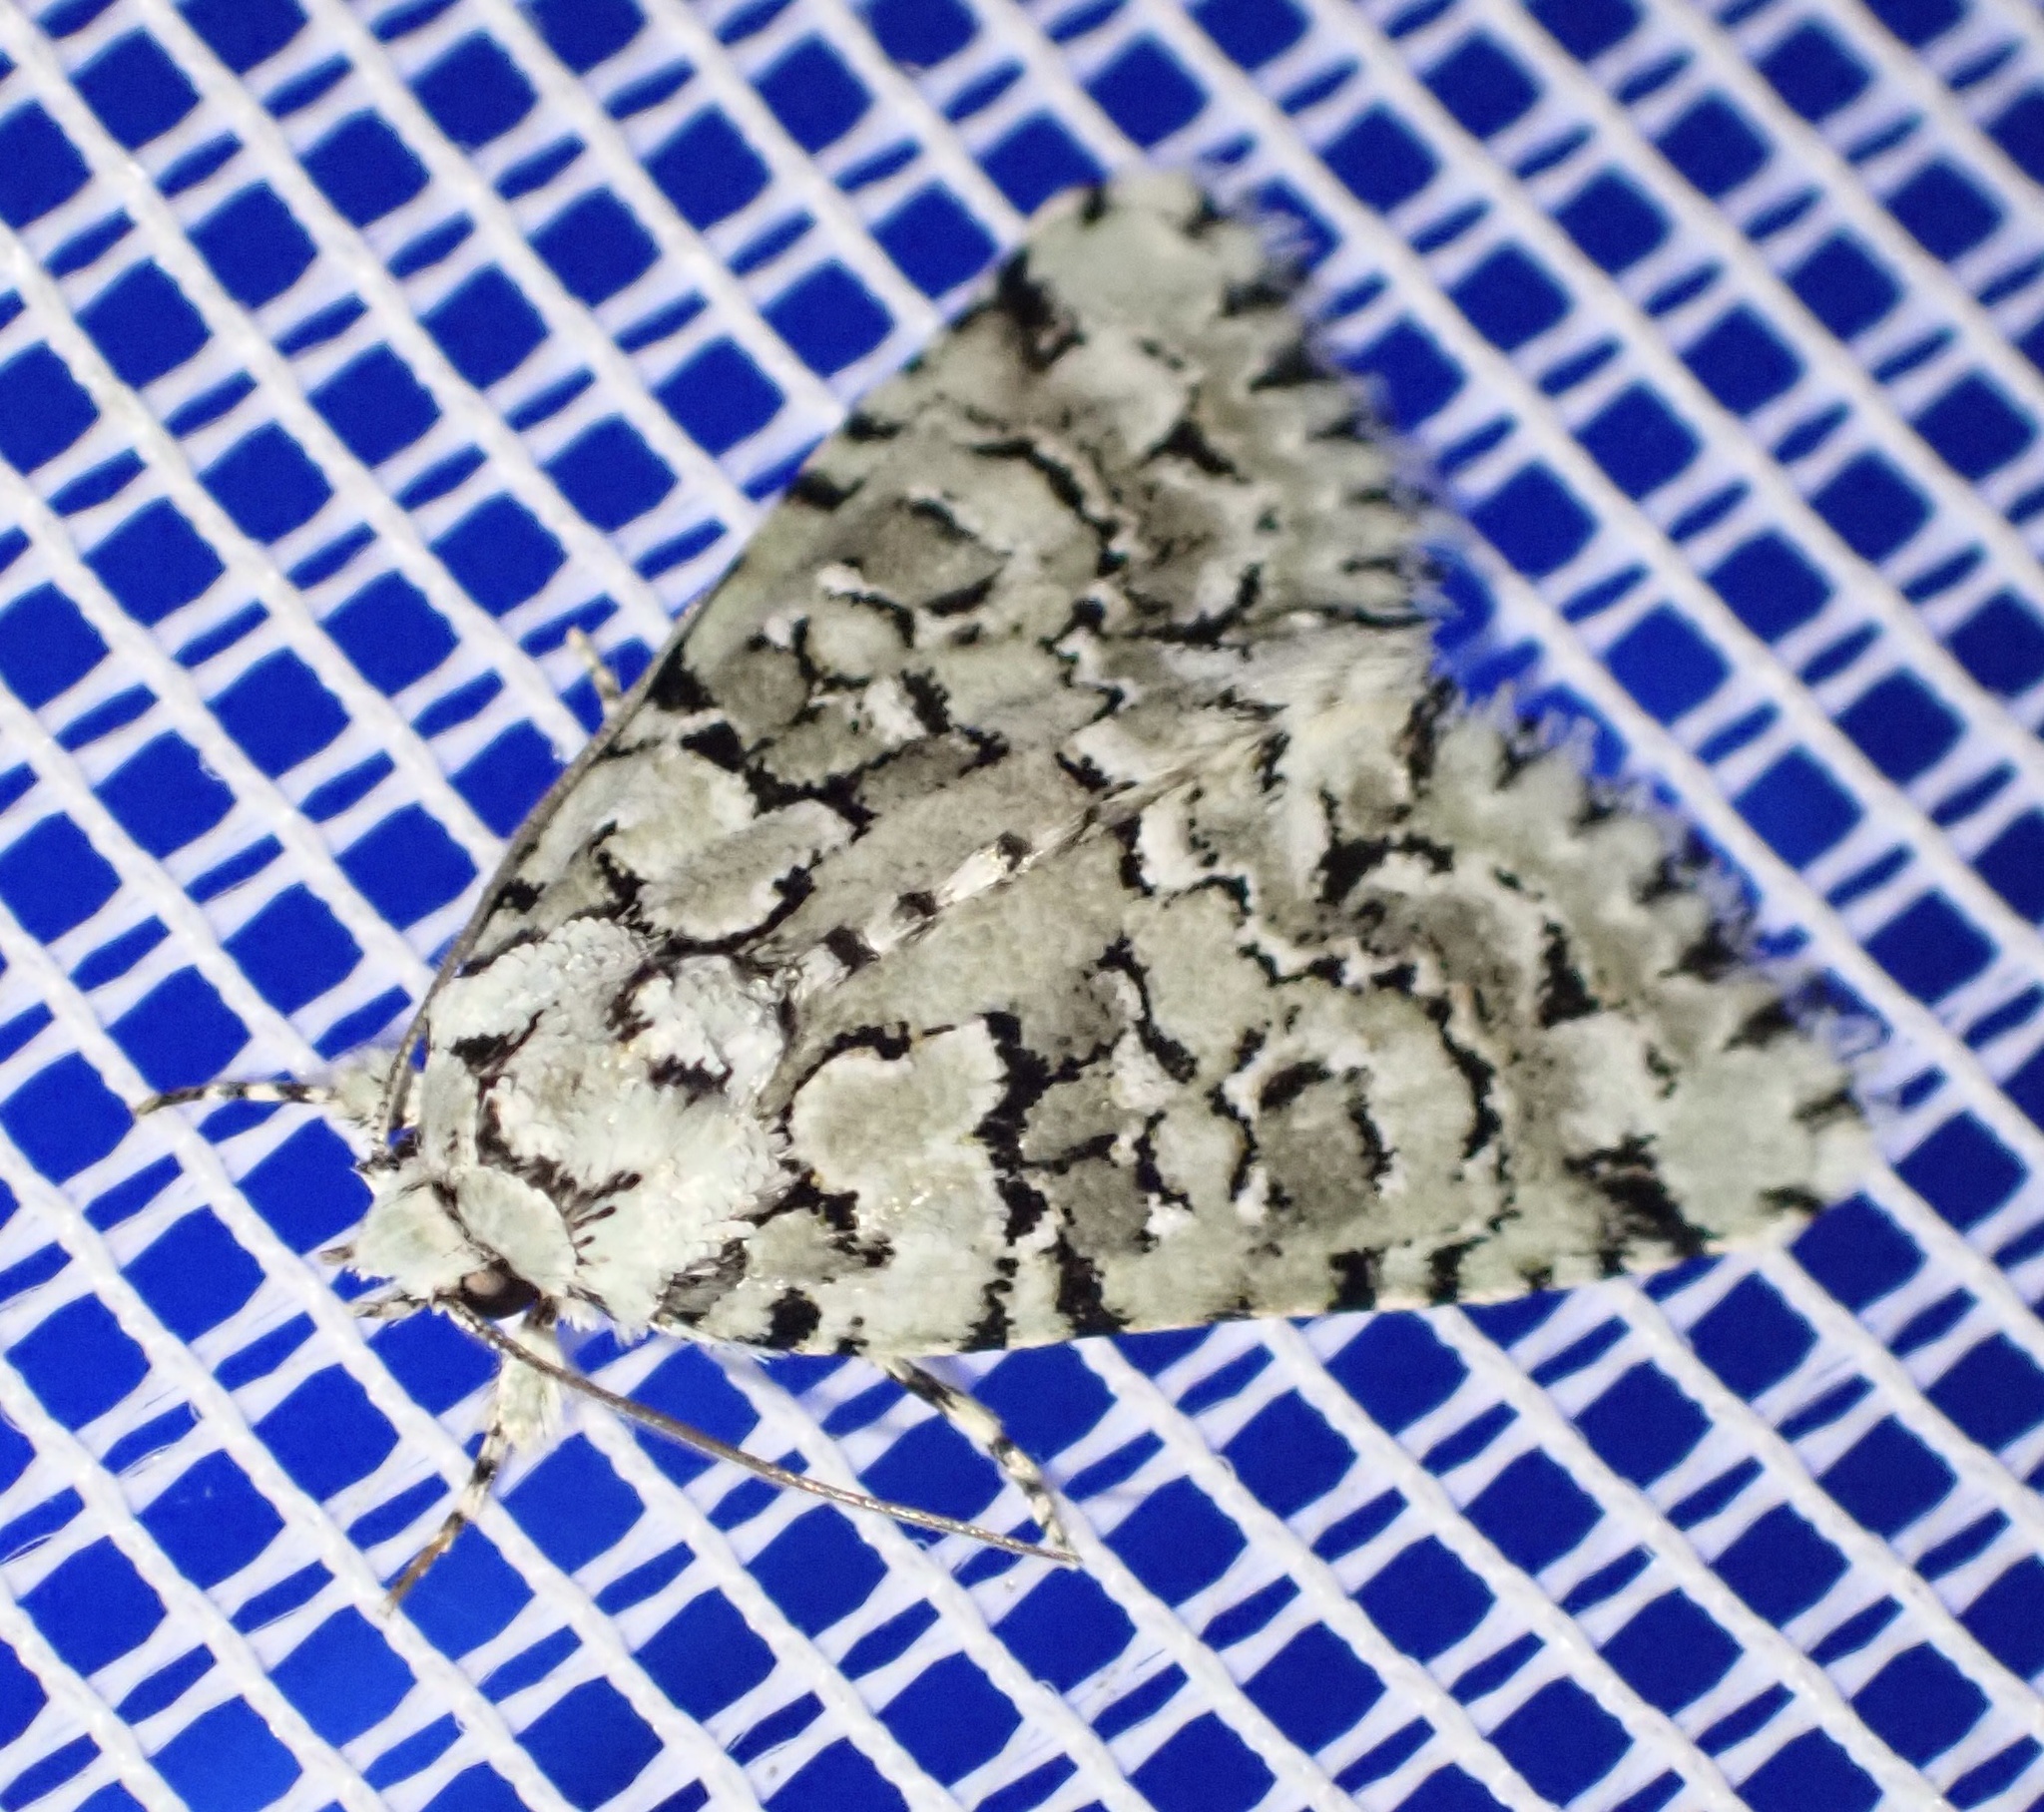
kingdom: Animalia
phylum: Arthropoda
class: Insecta
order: Lepidoptera
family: Noctuidae
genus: Nyctobrya
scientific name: Nyctobrya muralis
